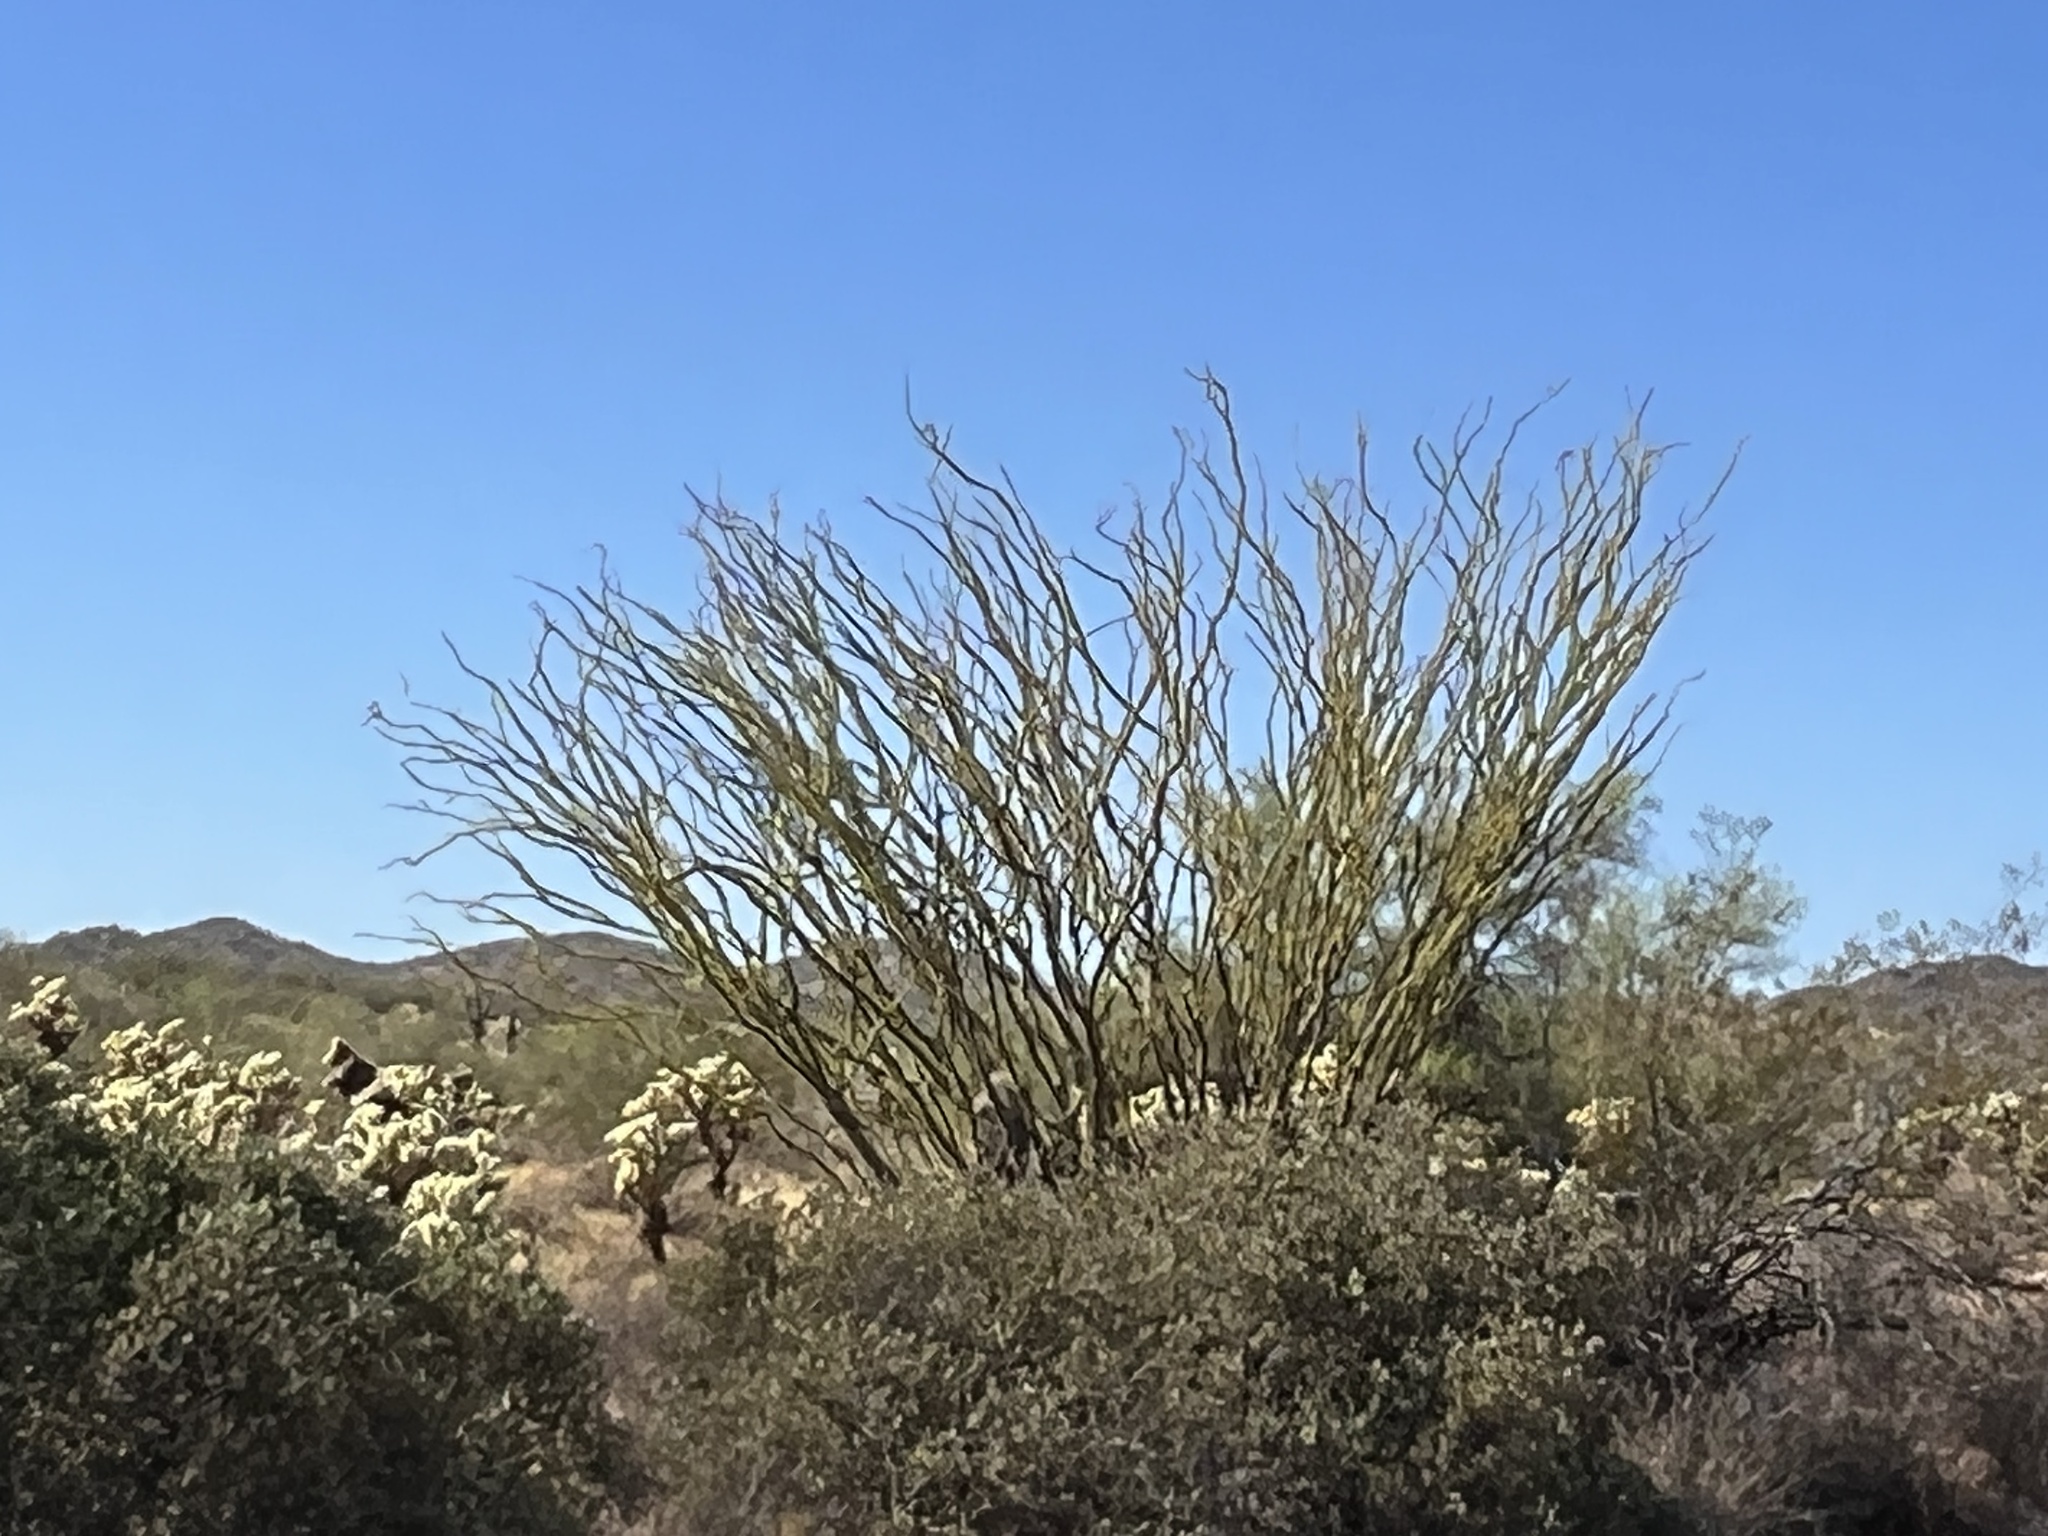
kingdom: Plantae
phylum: Tracheophyta
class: Magnoliopsida
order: Ericales
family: Fouquieriaceae
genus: Fouquieria
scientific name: Fouquieria splendens
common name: Vine-cactus
